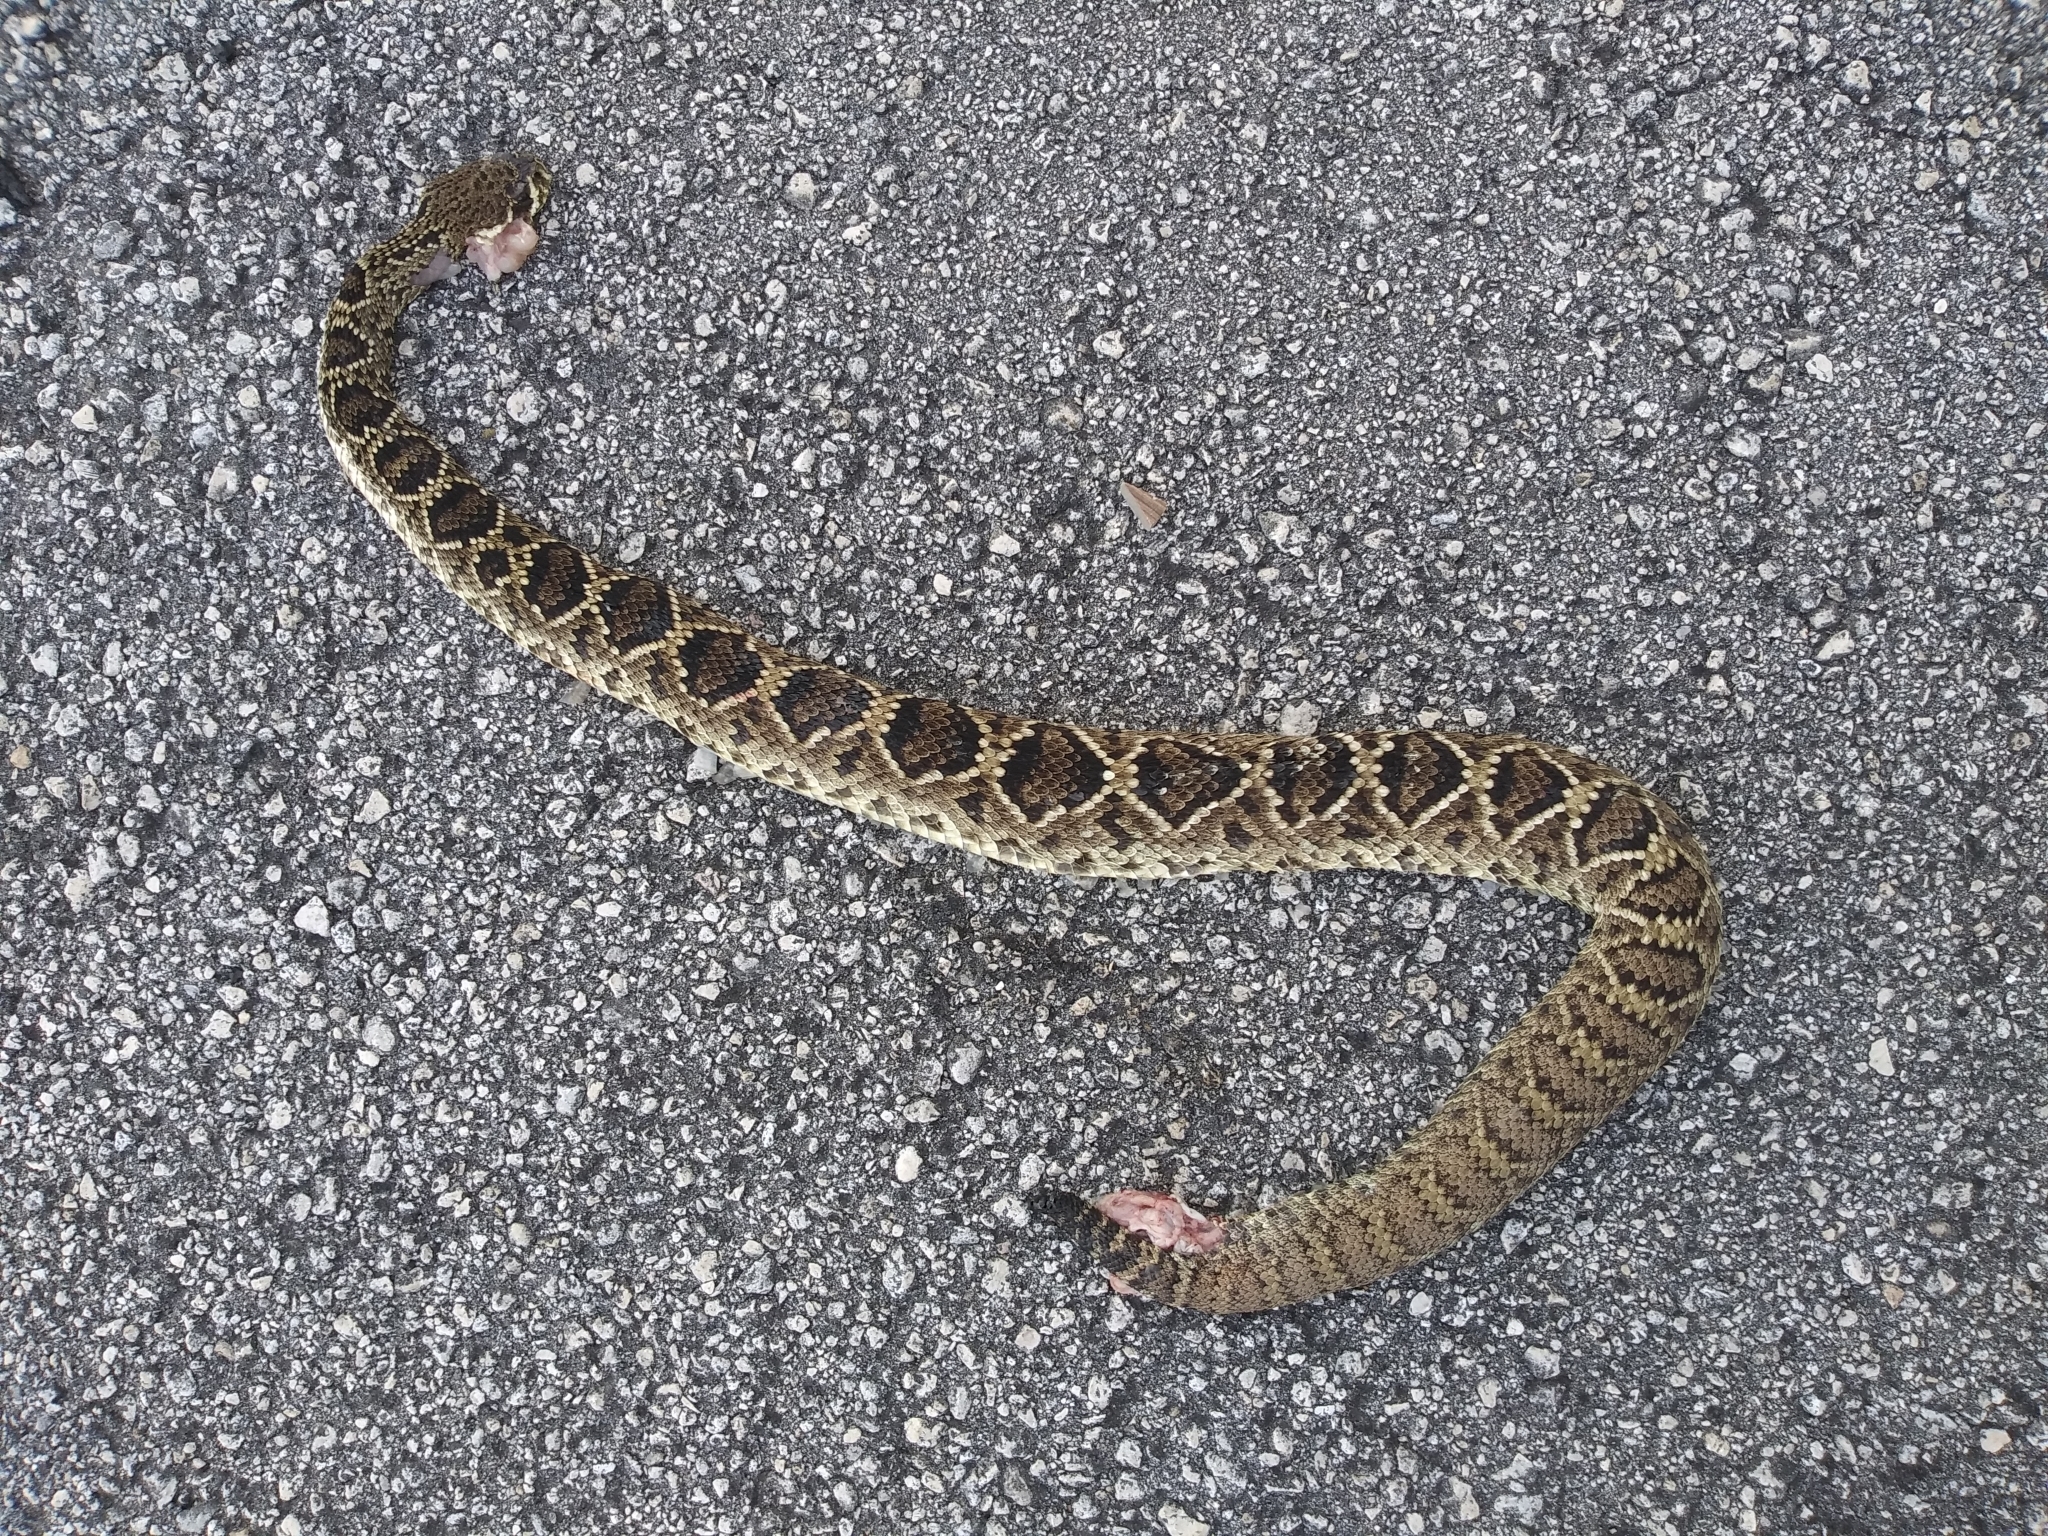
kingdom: Animalia
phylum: Chordata
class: Squamata
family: Viperidae
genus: Crotalus
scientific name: Crotalus adamanteus
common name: Eastern diamondback rattlesnake
